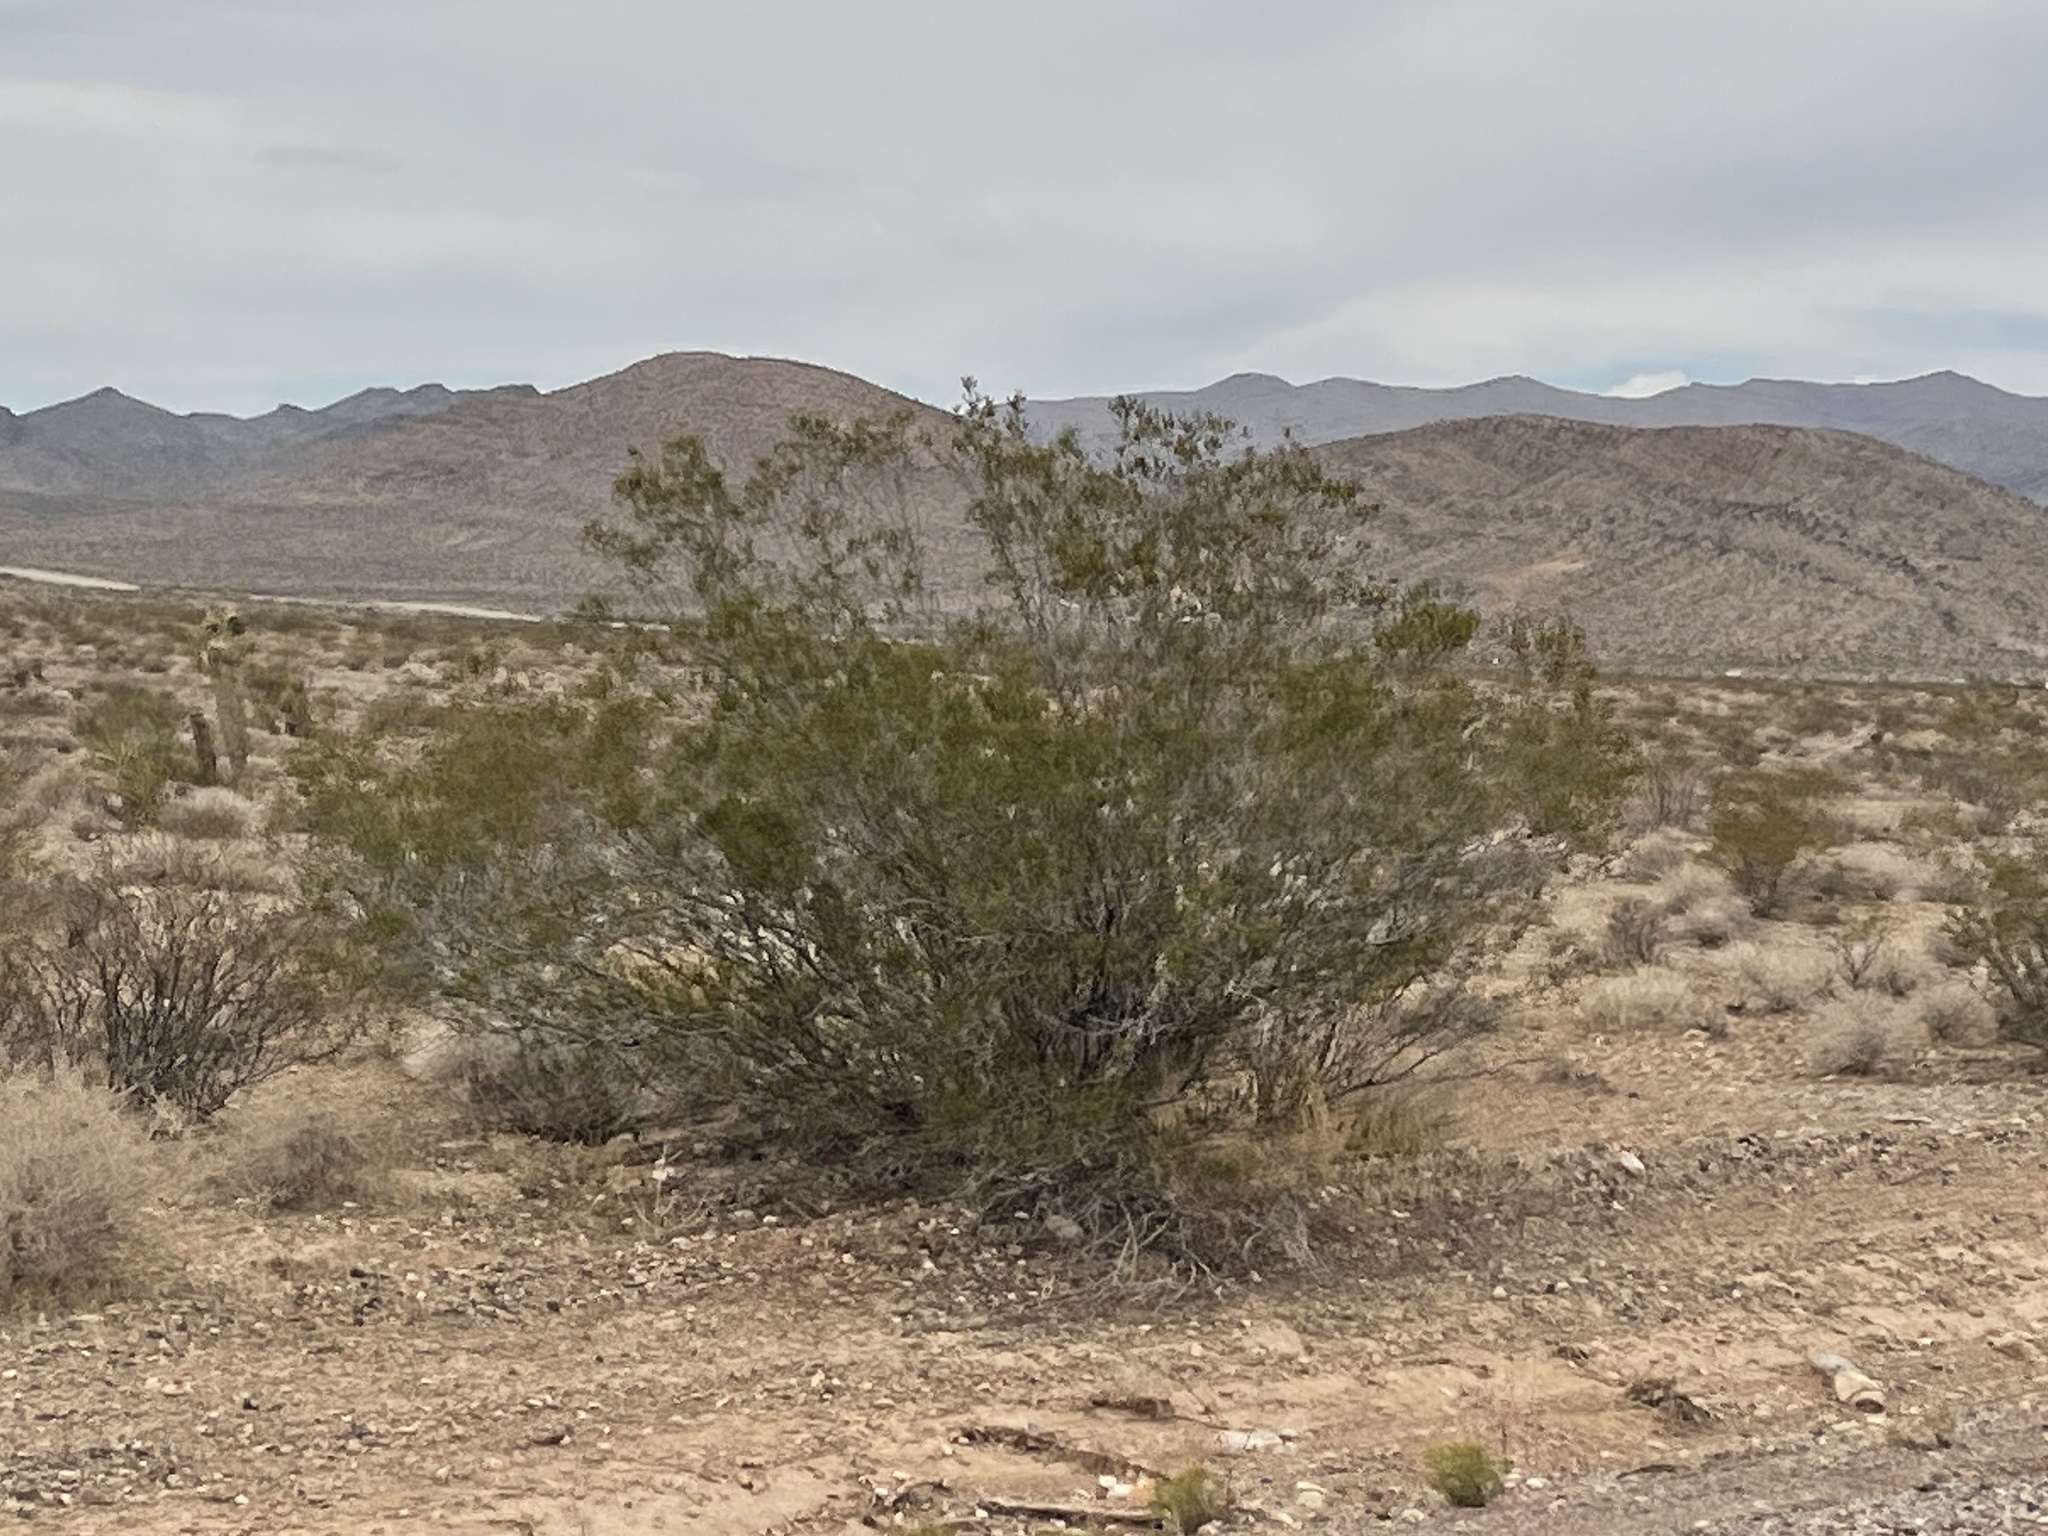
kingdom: Plantae
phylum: Tracheophyta
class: Magnoliopsida
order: Zygophyllales
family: Zygophyllaceae
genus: Larrea
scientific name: Larrea tridentata
